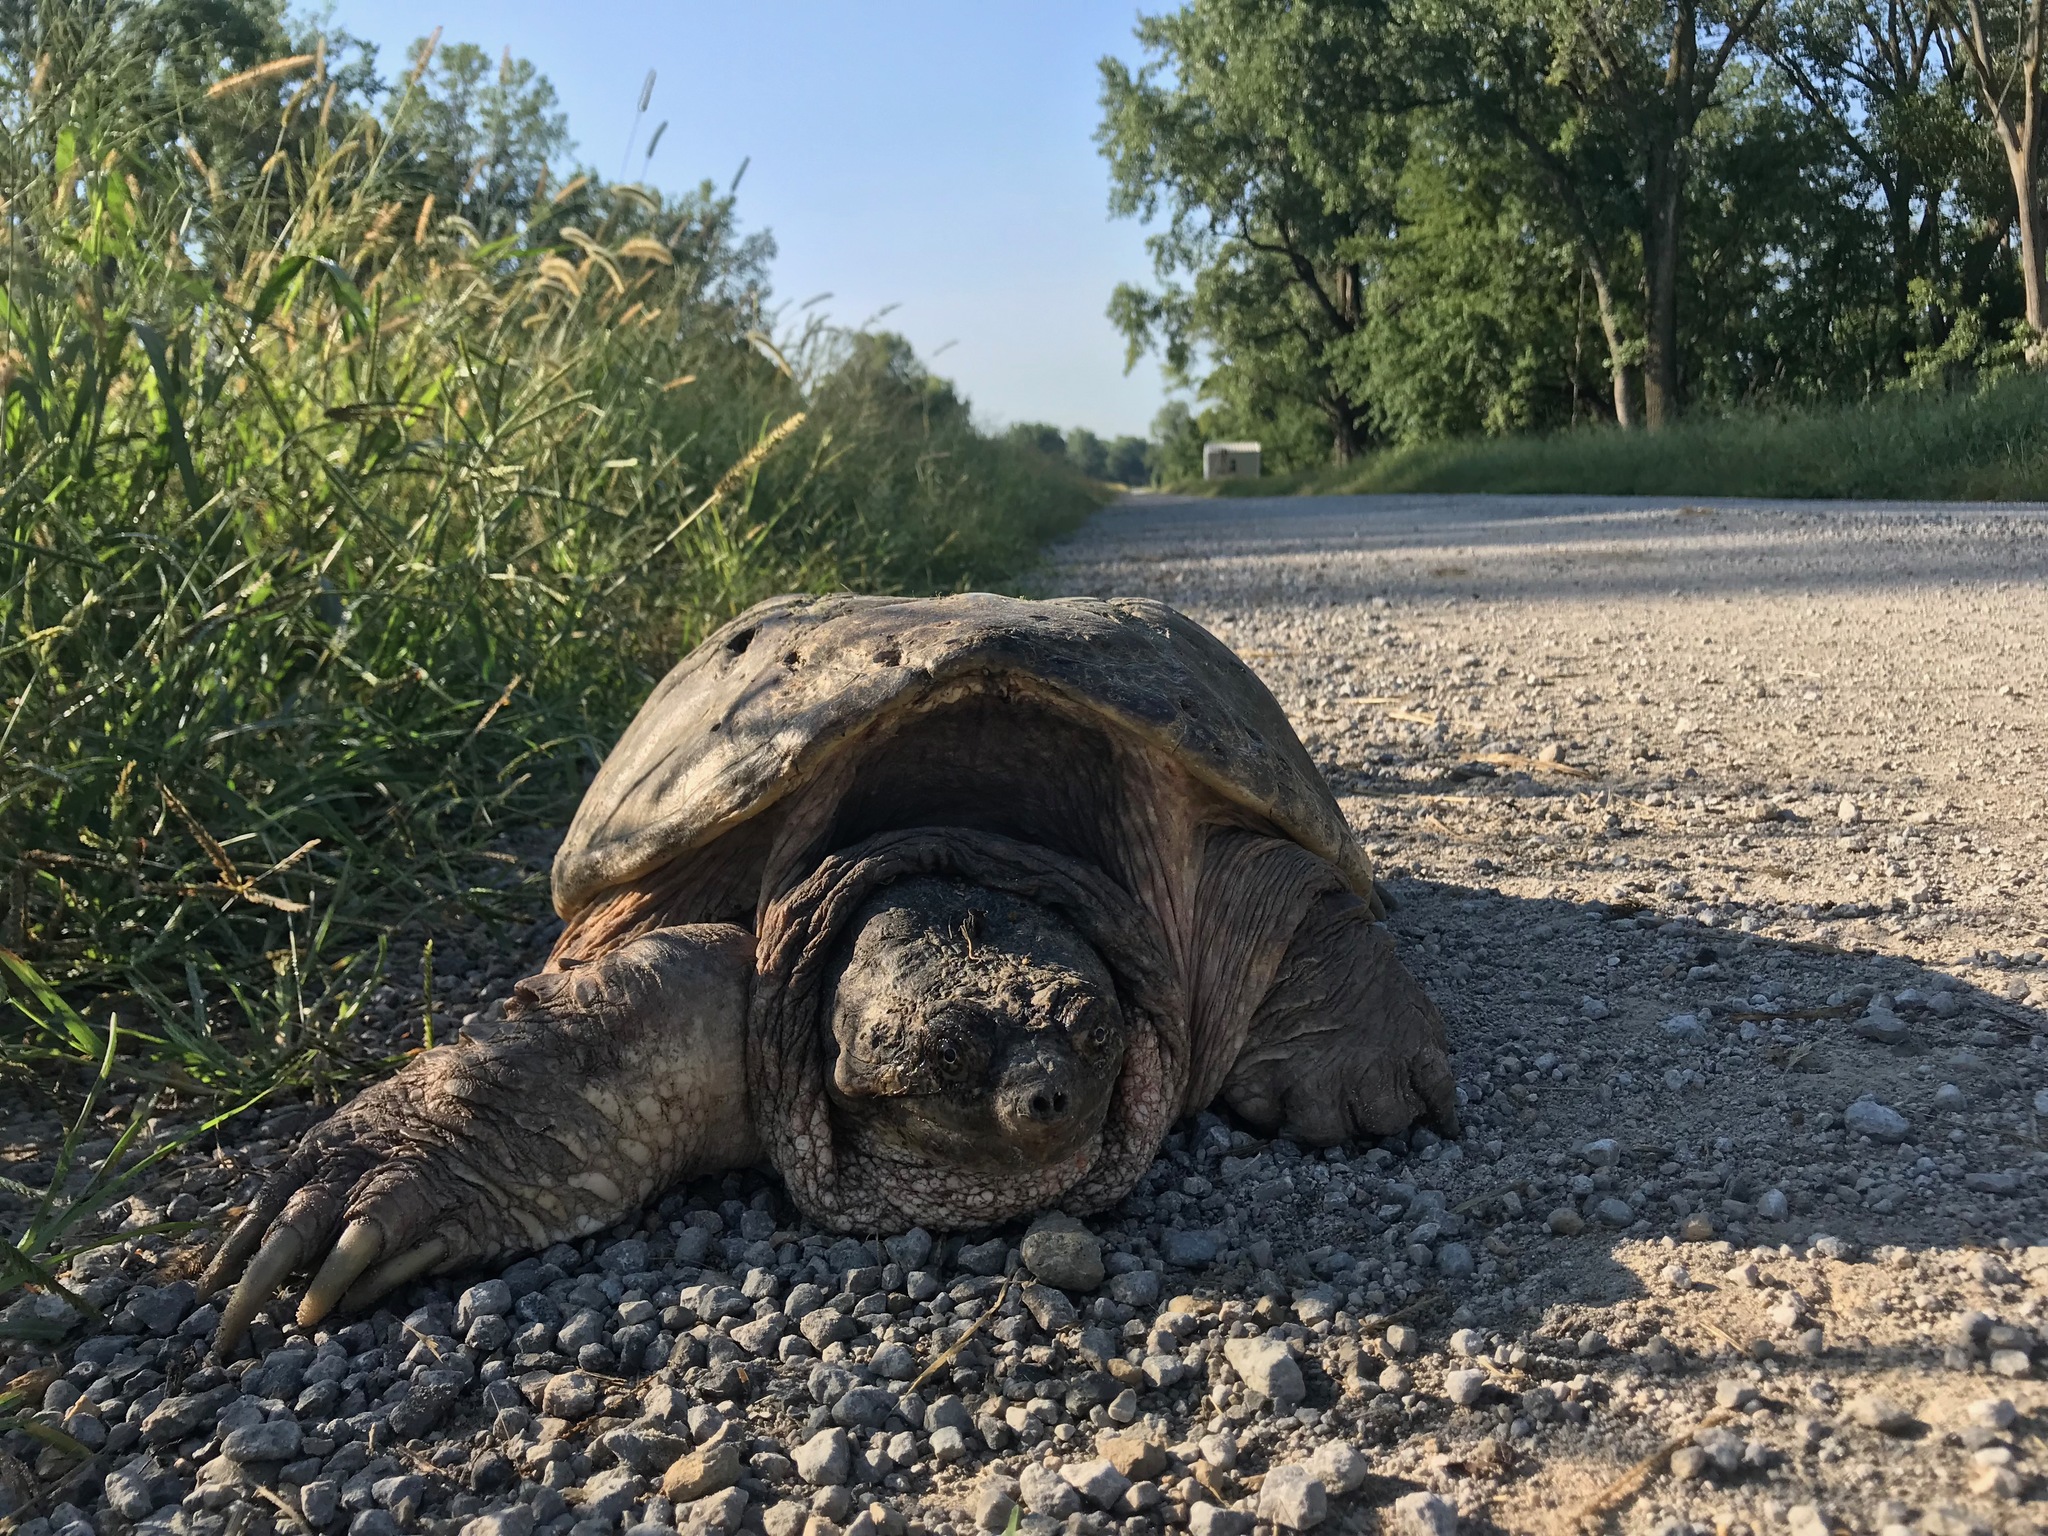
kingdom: Animalia
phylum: Chordata
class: Testudines
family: Chelydridae
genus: Chelydra
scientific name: Chelydra serpentina
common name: Common snapping turtle
